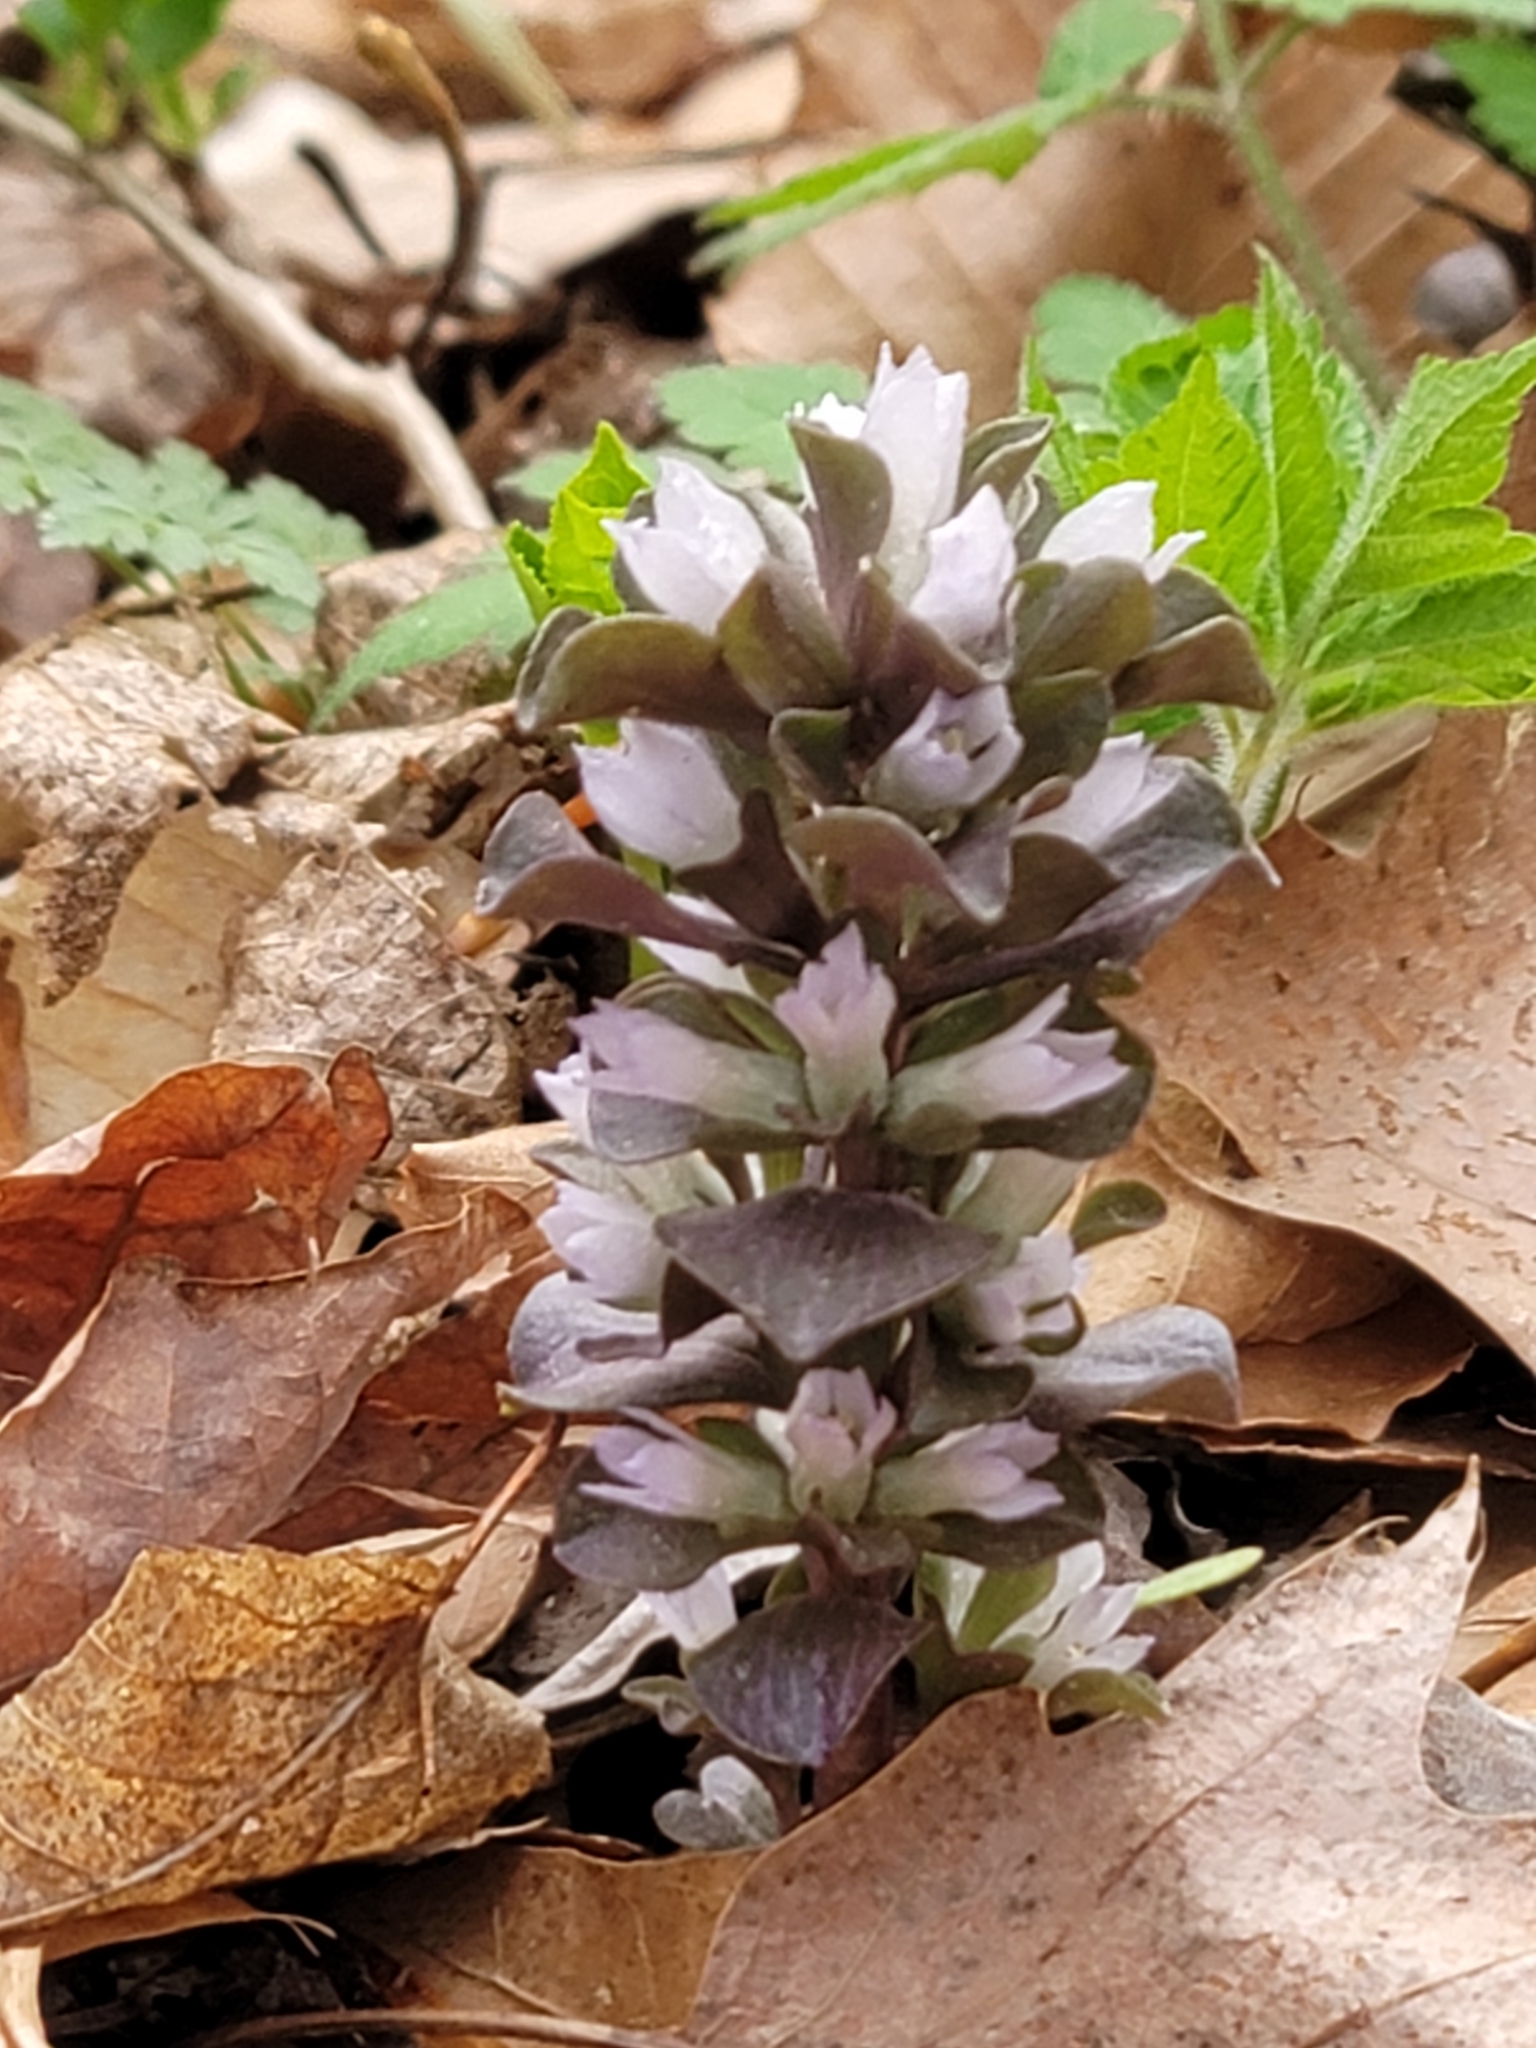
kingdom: Plantae
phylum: Tracheophyta
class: Magnoliopsida
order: Gentianales
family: Gentianaceae
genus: Obolaria
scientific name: Obolaria virginica
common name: Pennywort
